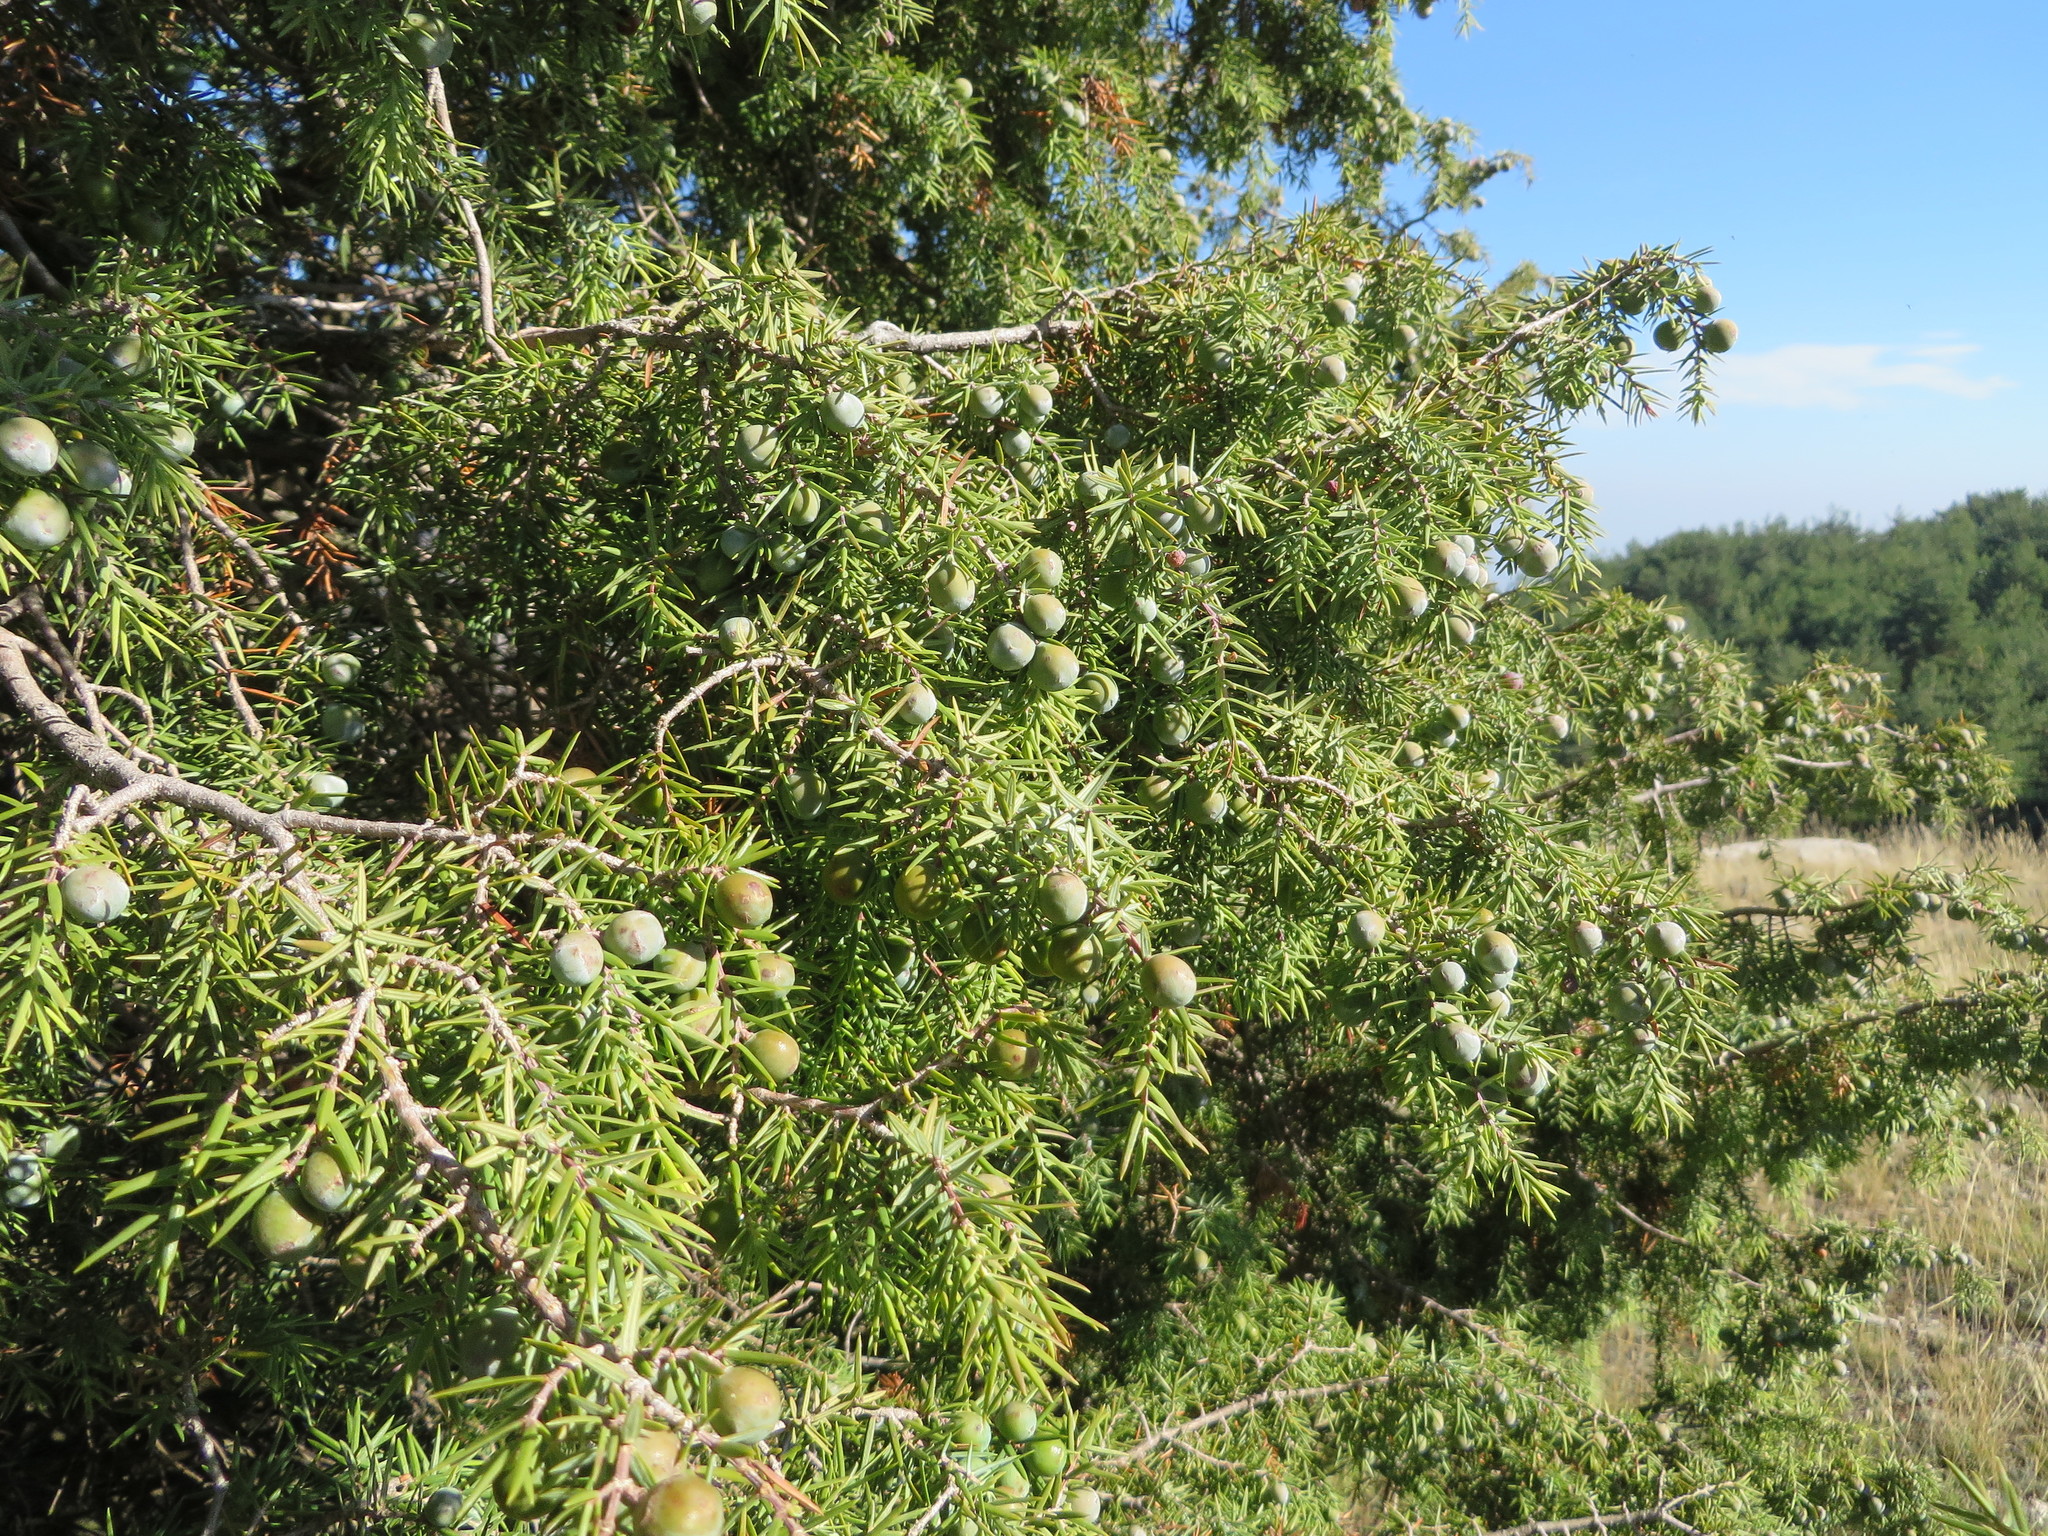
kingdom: Plantae
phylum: Tracheophyta
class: Pinopsida
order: Pinales
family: Cupressaceae
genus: Juniperus
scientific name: Juniperus oxycedrus
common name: Prickly juniper
